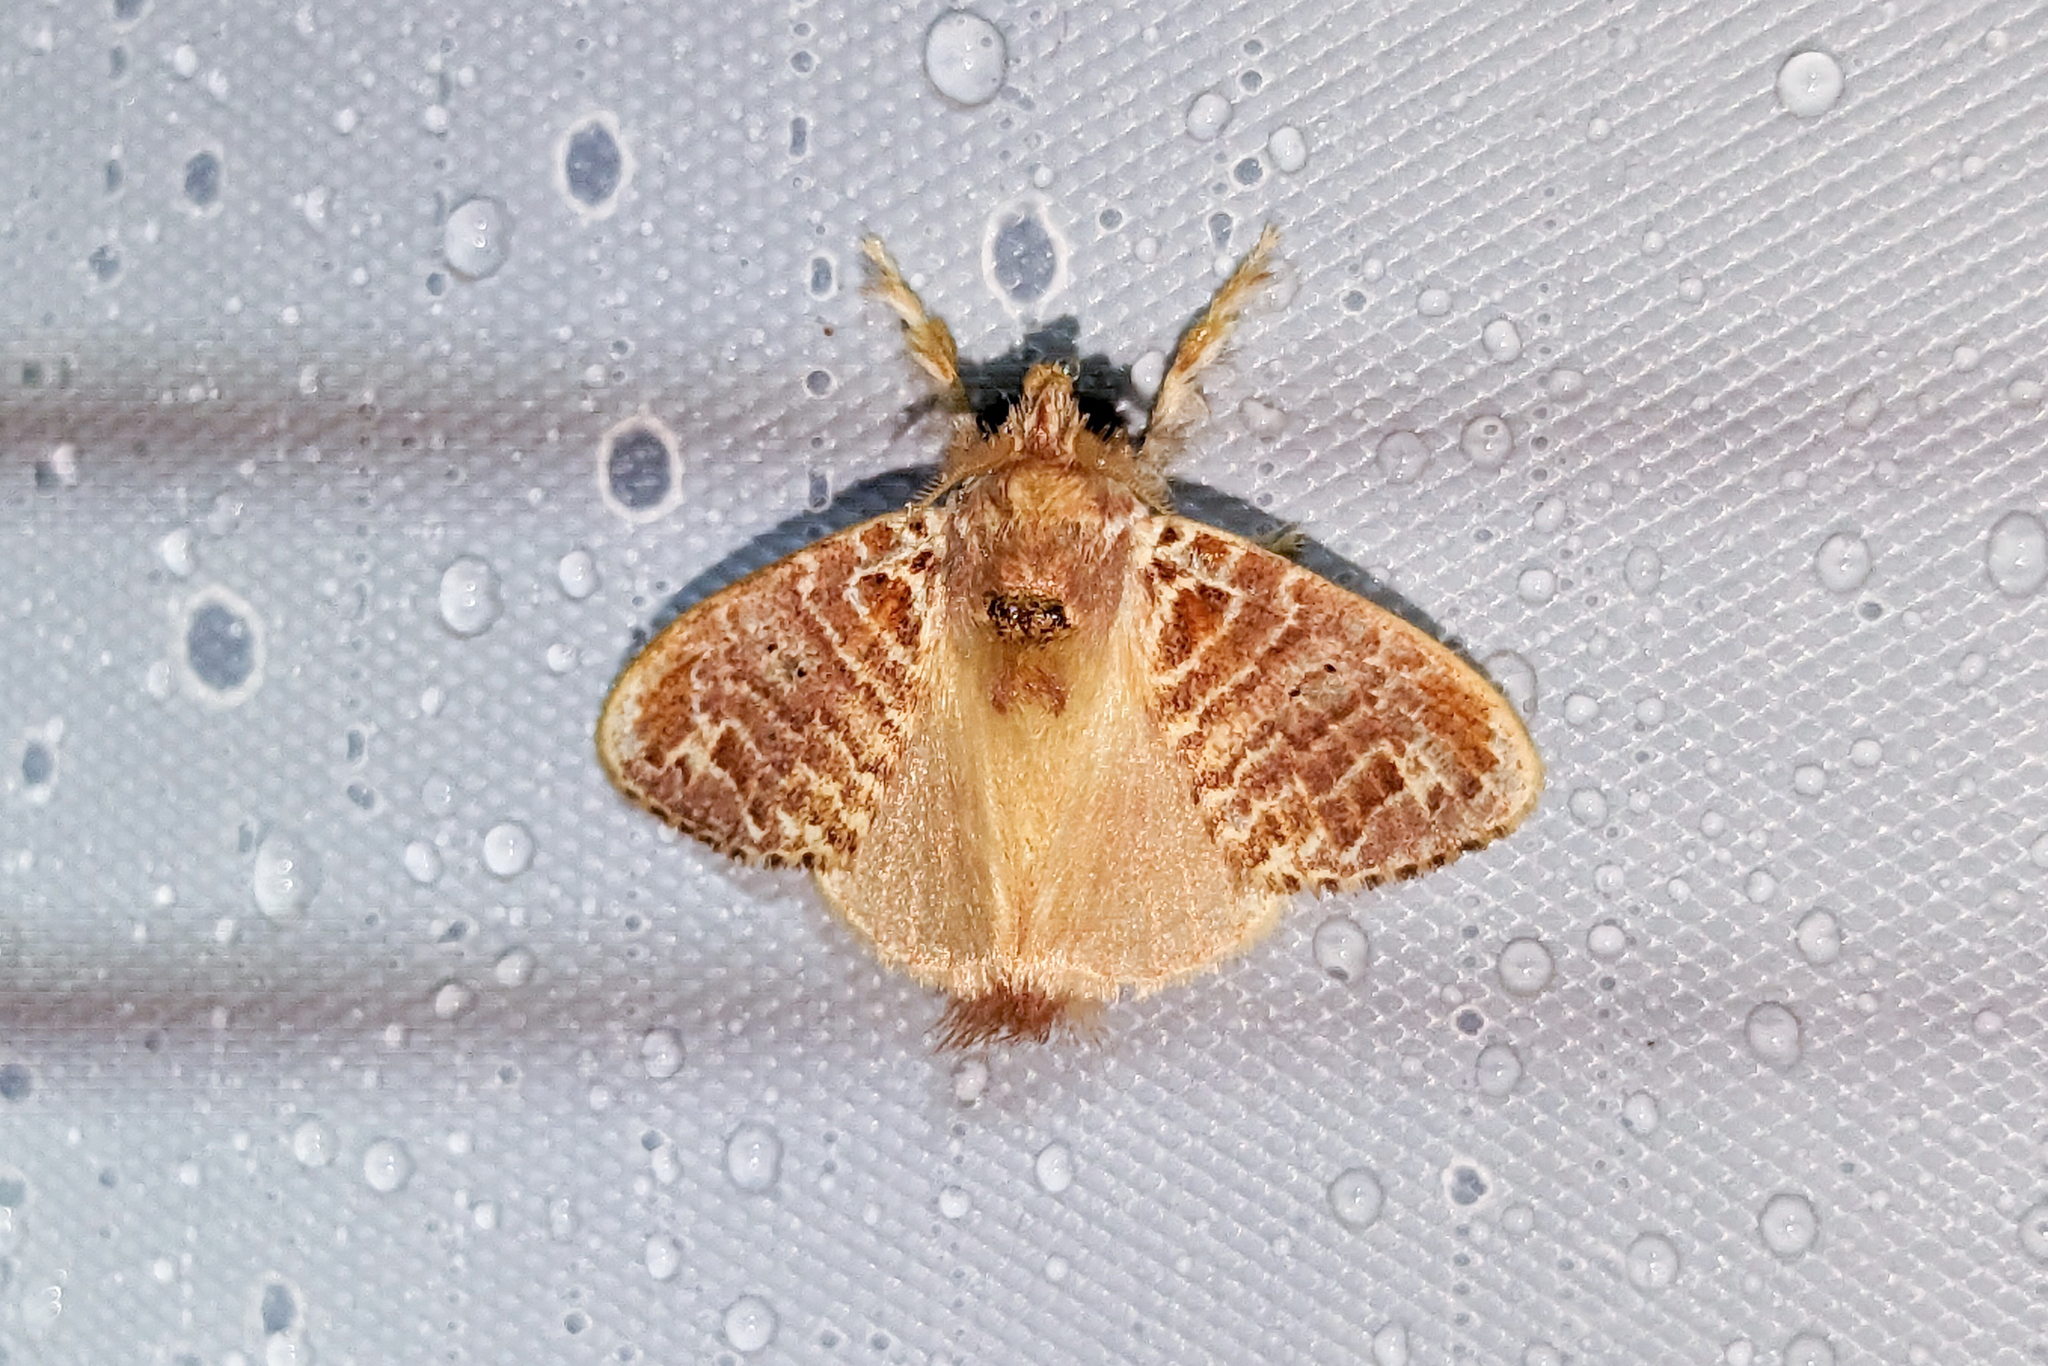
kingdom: Animalia
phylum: Arthropoda
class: Insecta
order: Lepidoptera
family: Lasiocampidae
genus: Nesara
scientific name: Nesara tremula
